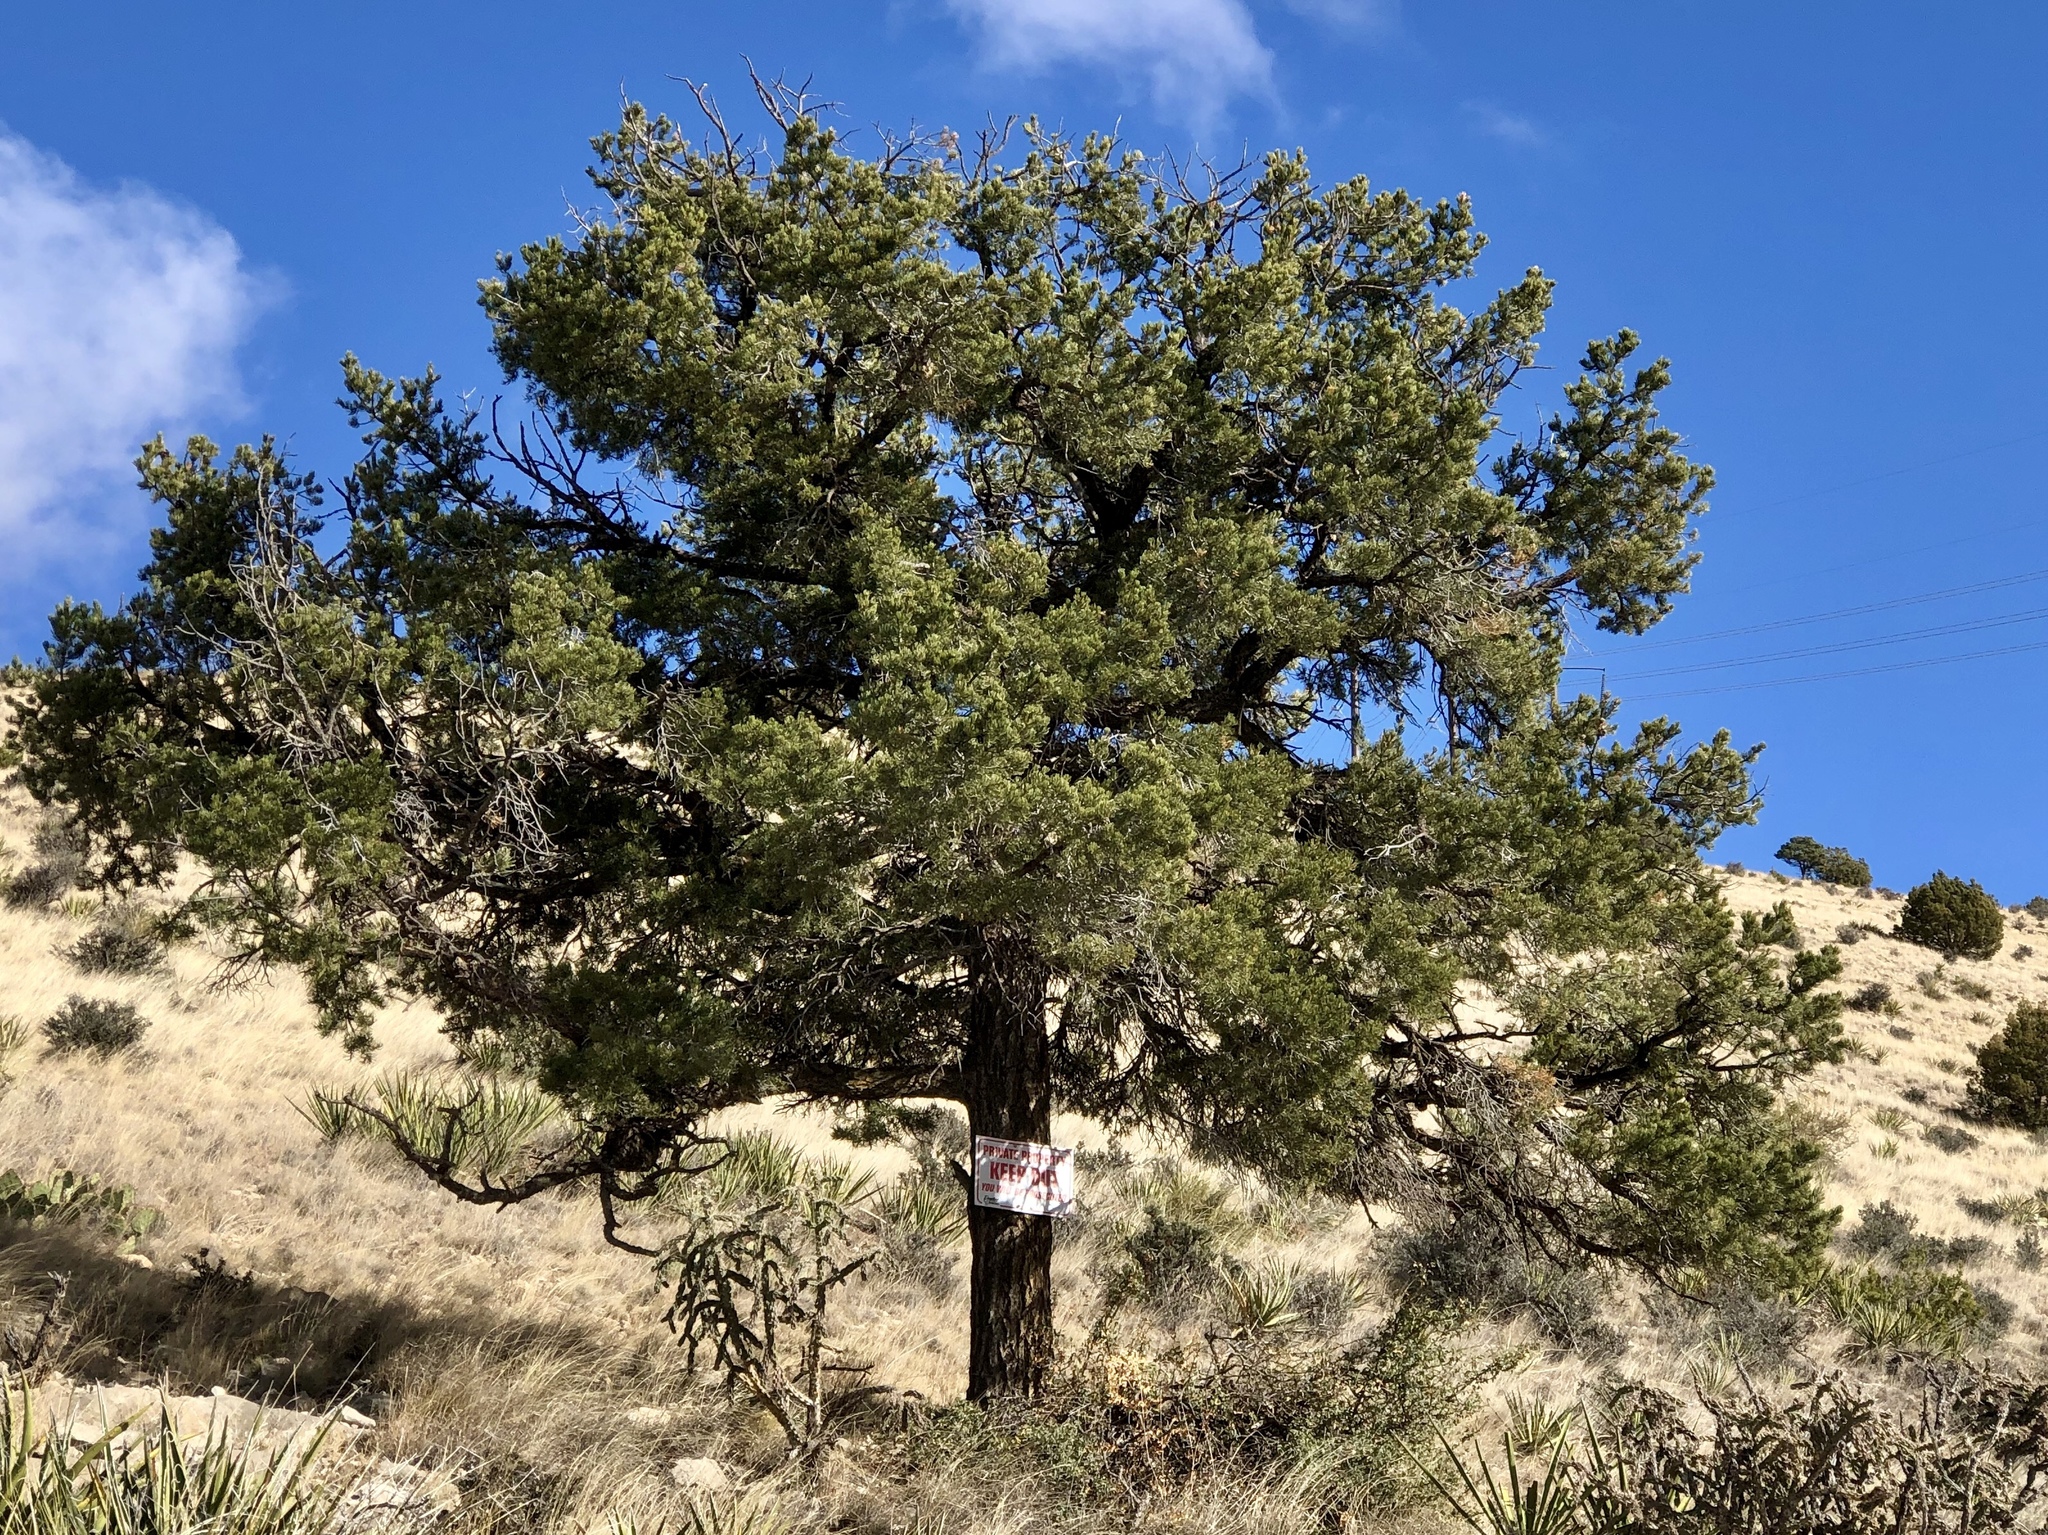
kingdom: Plantae
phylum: Tracheophyta
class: Pinopsida
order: Pinales
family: Pinaceae
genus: Pinus
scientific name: Pinus edulis
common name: Colorado pinyon
